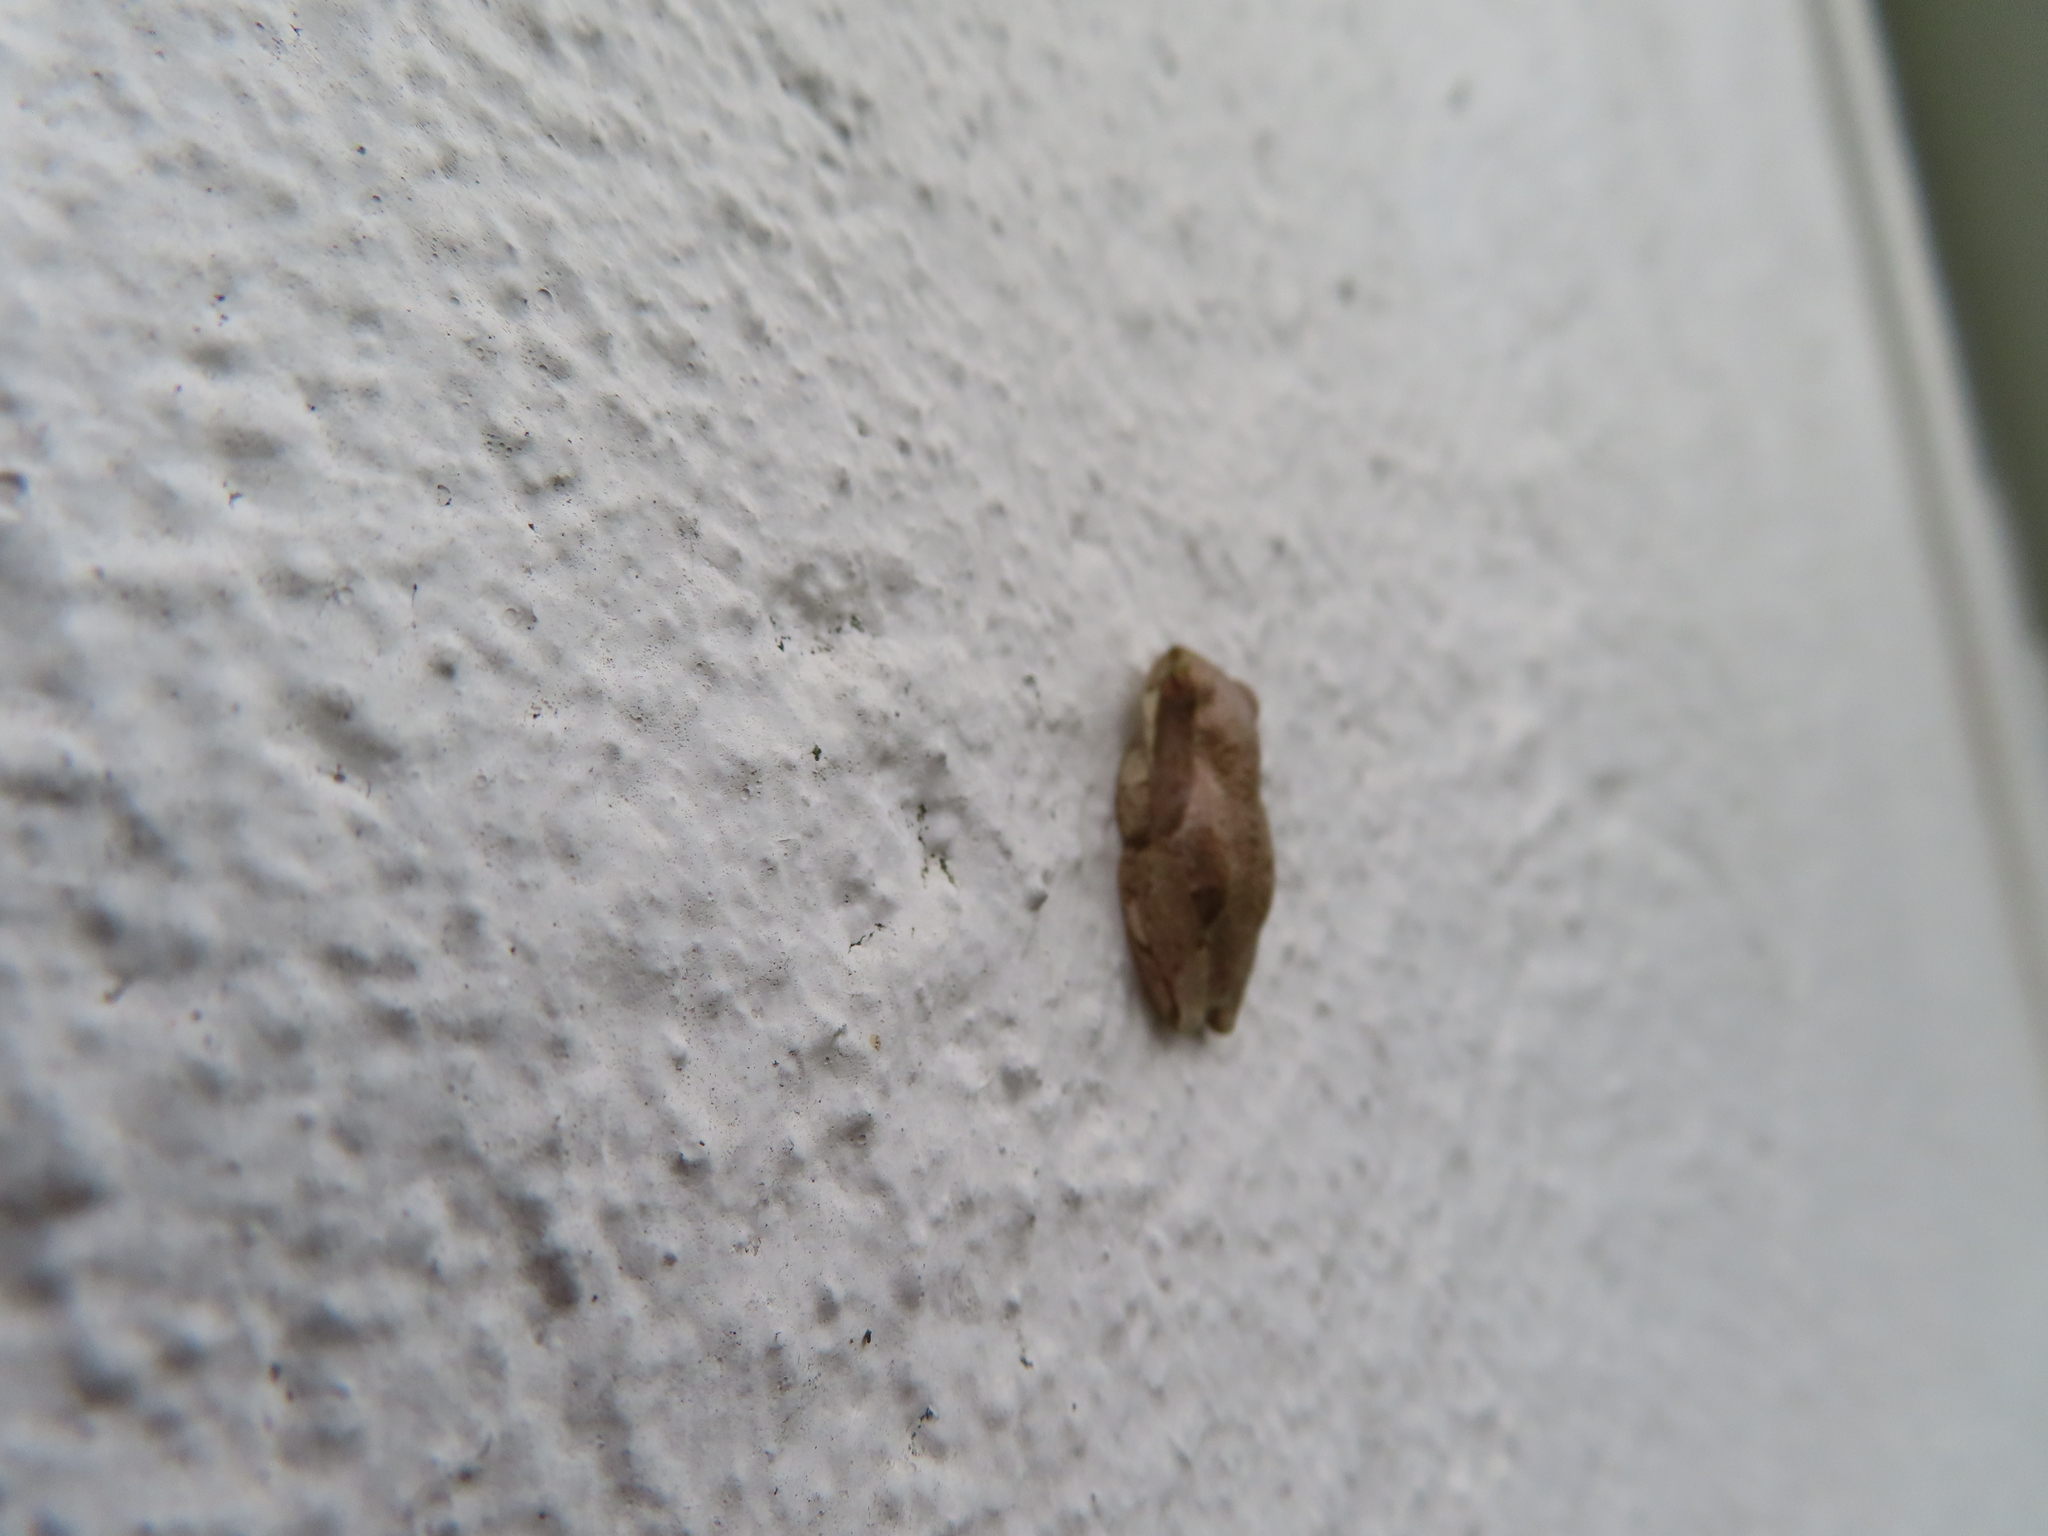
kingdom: Animalia
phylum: Arthropoda
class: Insecta
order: Hymenoptera
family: Formicidae
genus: Solenopsis
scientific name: Solenopsis punctaticeps
